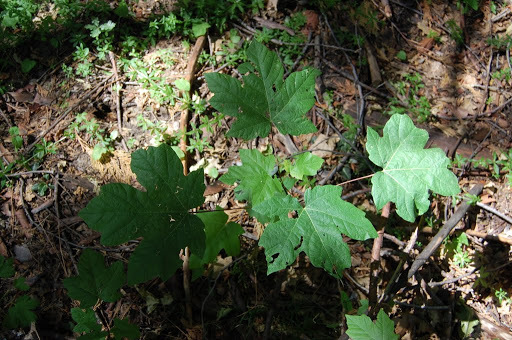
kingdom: Plantae
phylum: Tracheophyta
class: Magnoliopsida
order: Sapindales
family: Sapindaceae
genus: Acer
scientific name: Acer macrophyllum
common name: Oregon maple
